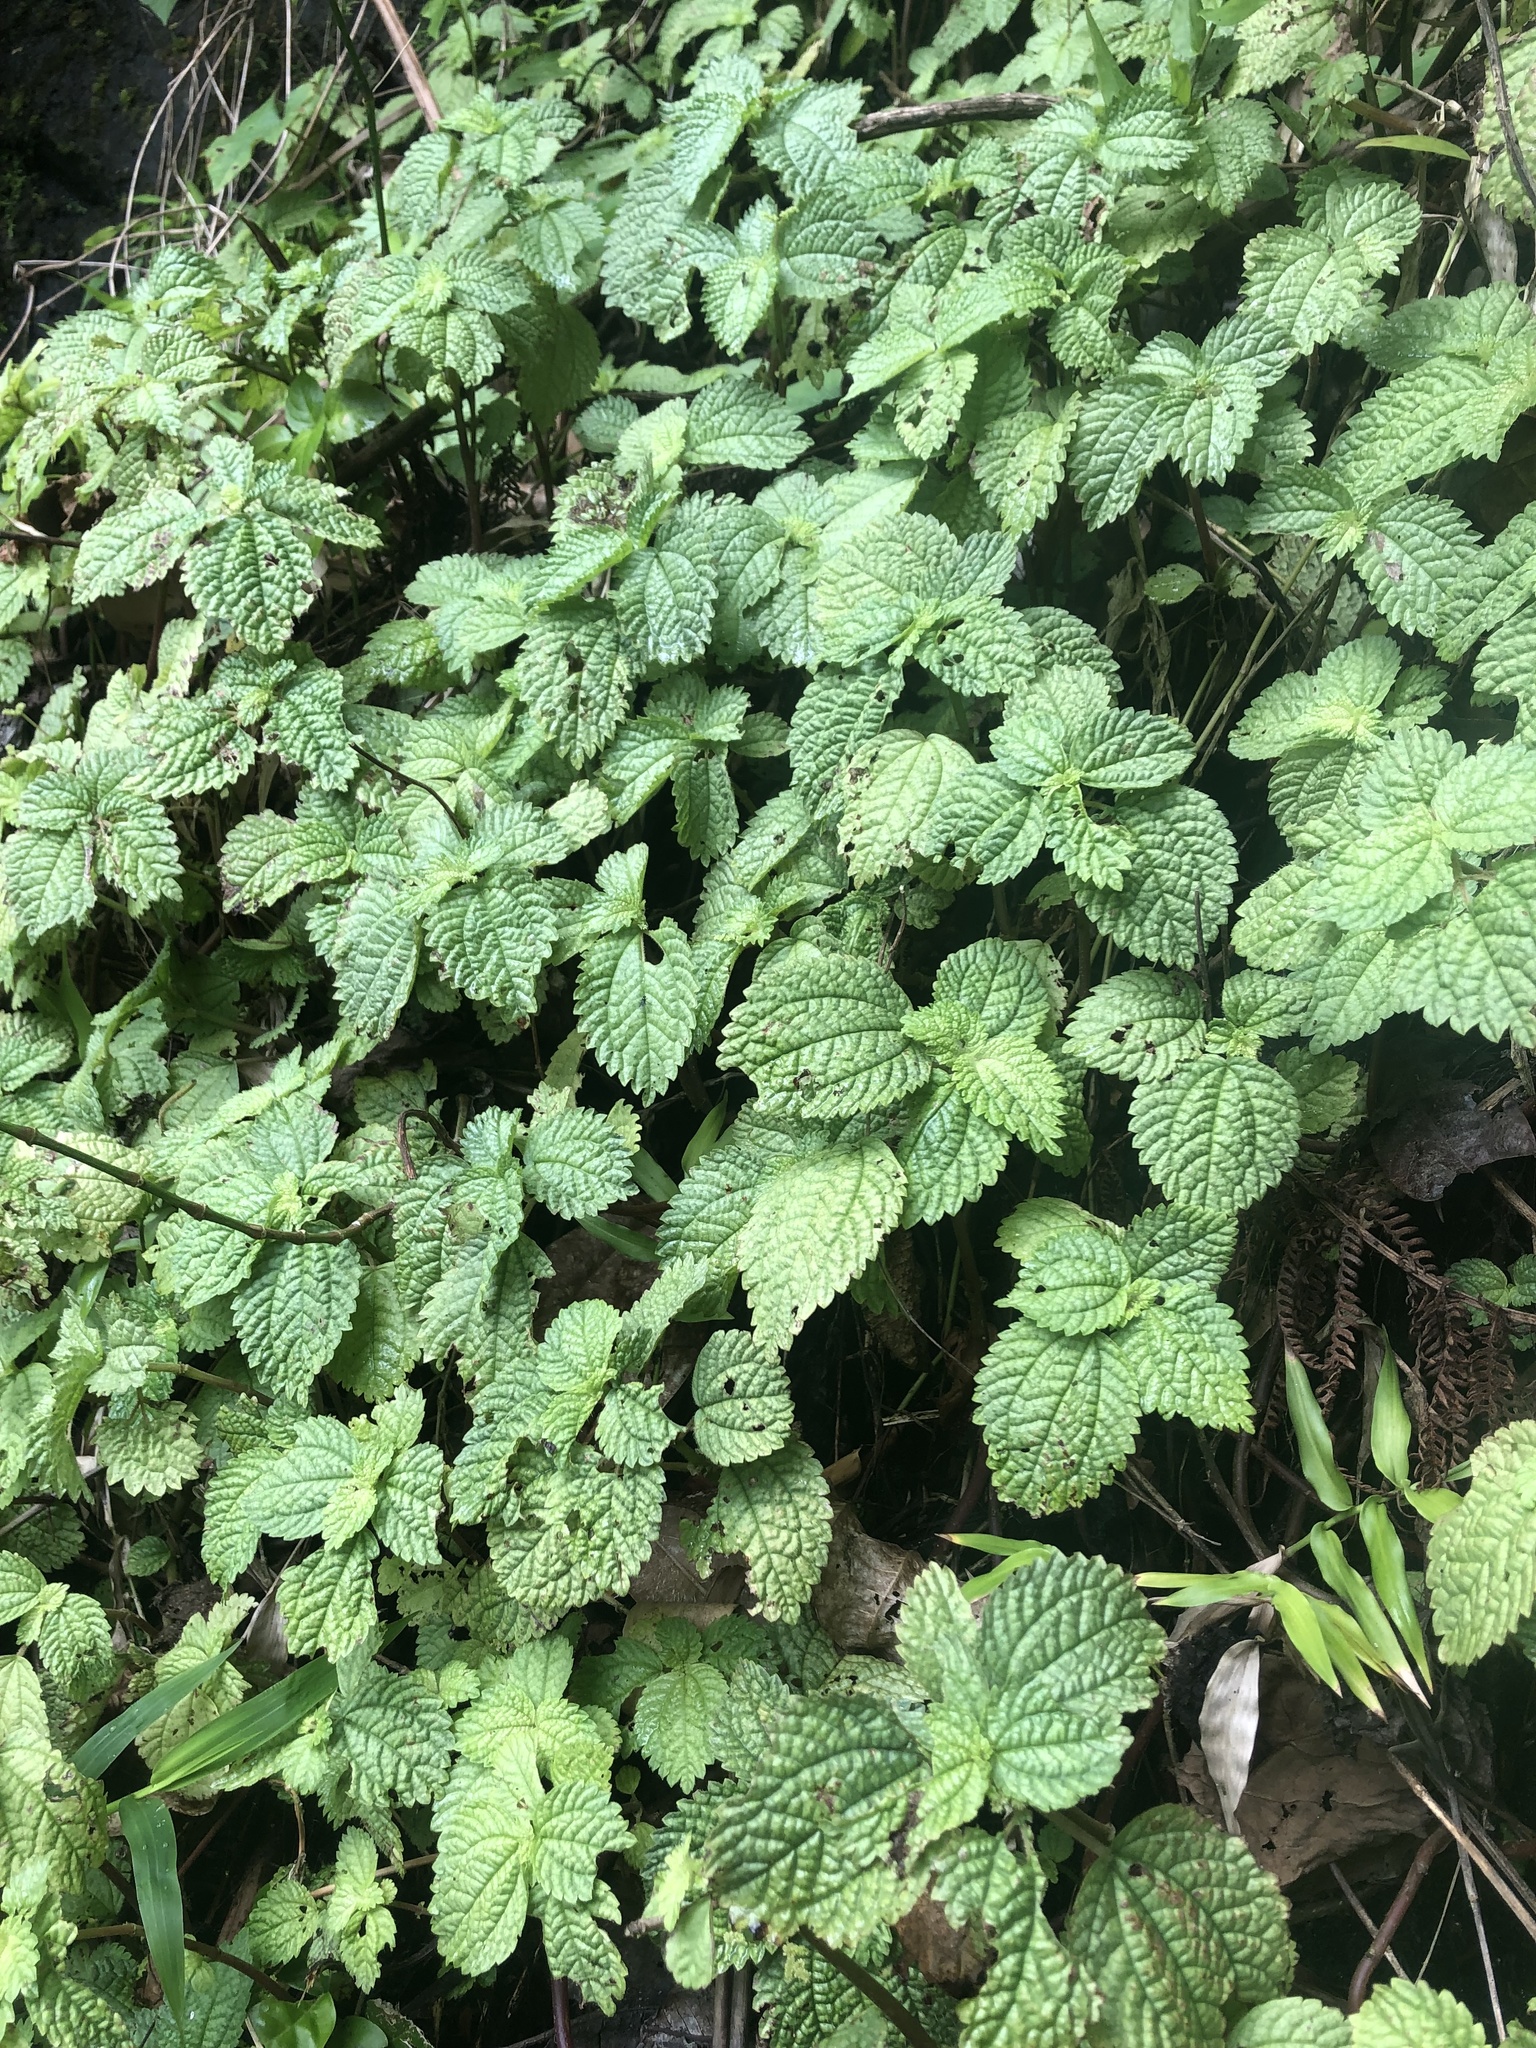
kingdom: Plantae
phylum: Tracheophyta
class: Magnoliopsida
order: Rosales
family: Urticaceae
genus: Pilea
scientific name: Pilea inaequalis
